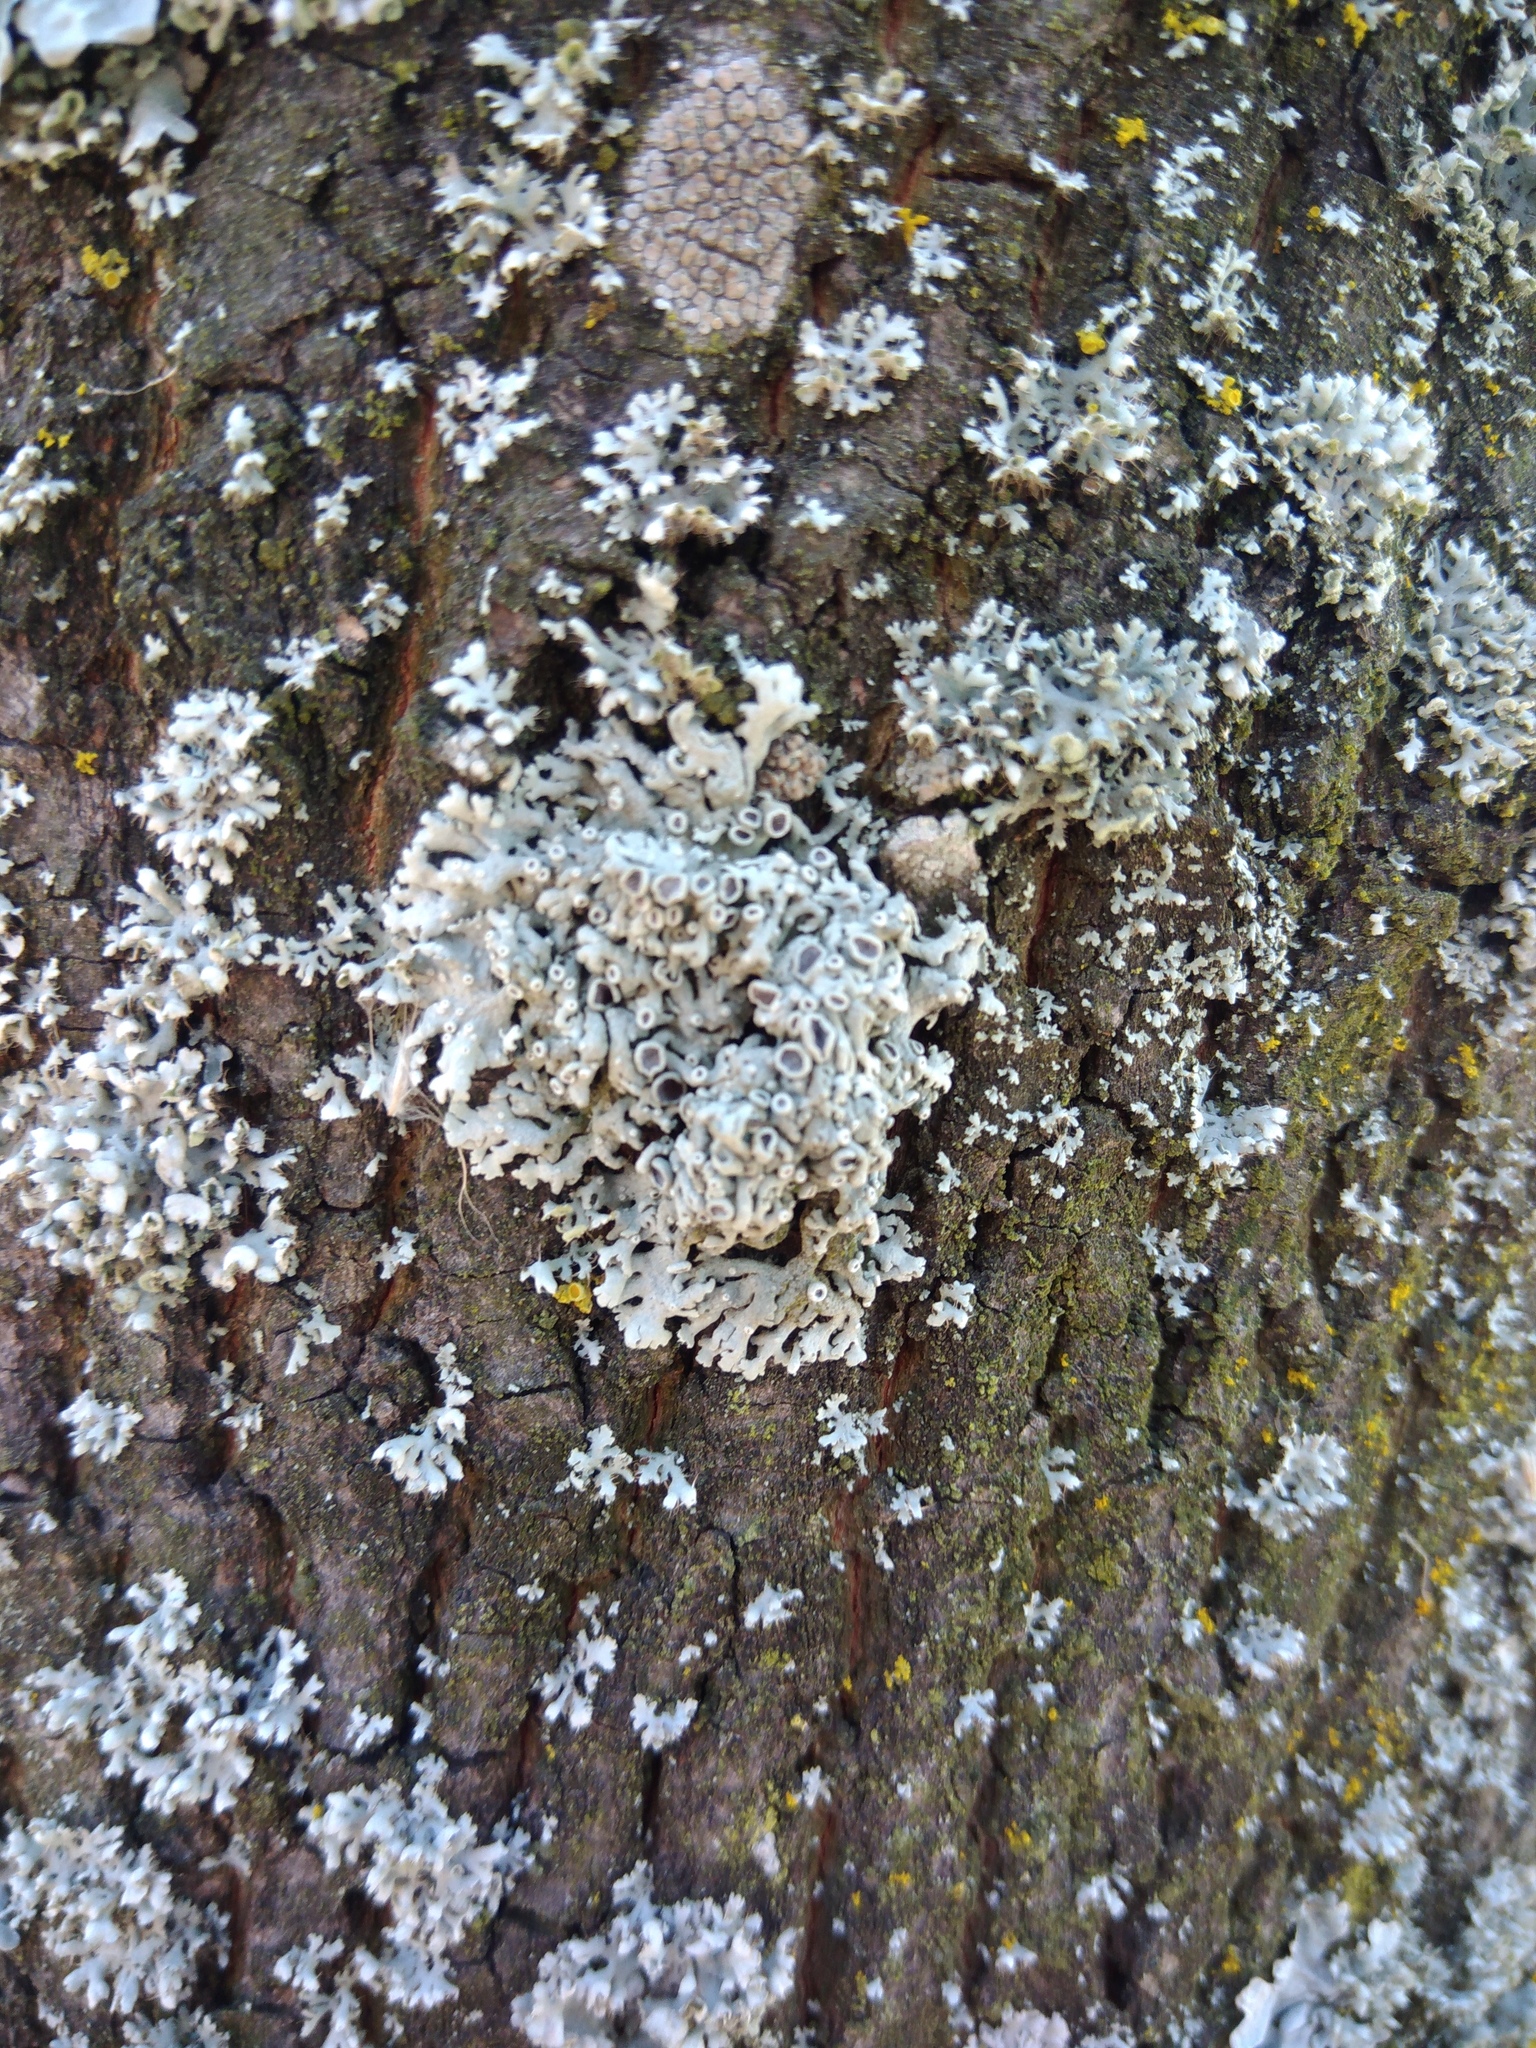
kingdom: Fungi
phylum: Ascomycota
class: Lecanoromycetes
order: Caliciales
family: Physciaceae
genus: Physcia
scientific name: Physcia stellaris
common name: Star rosette lichen
